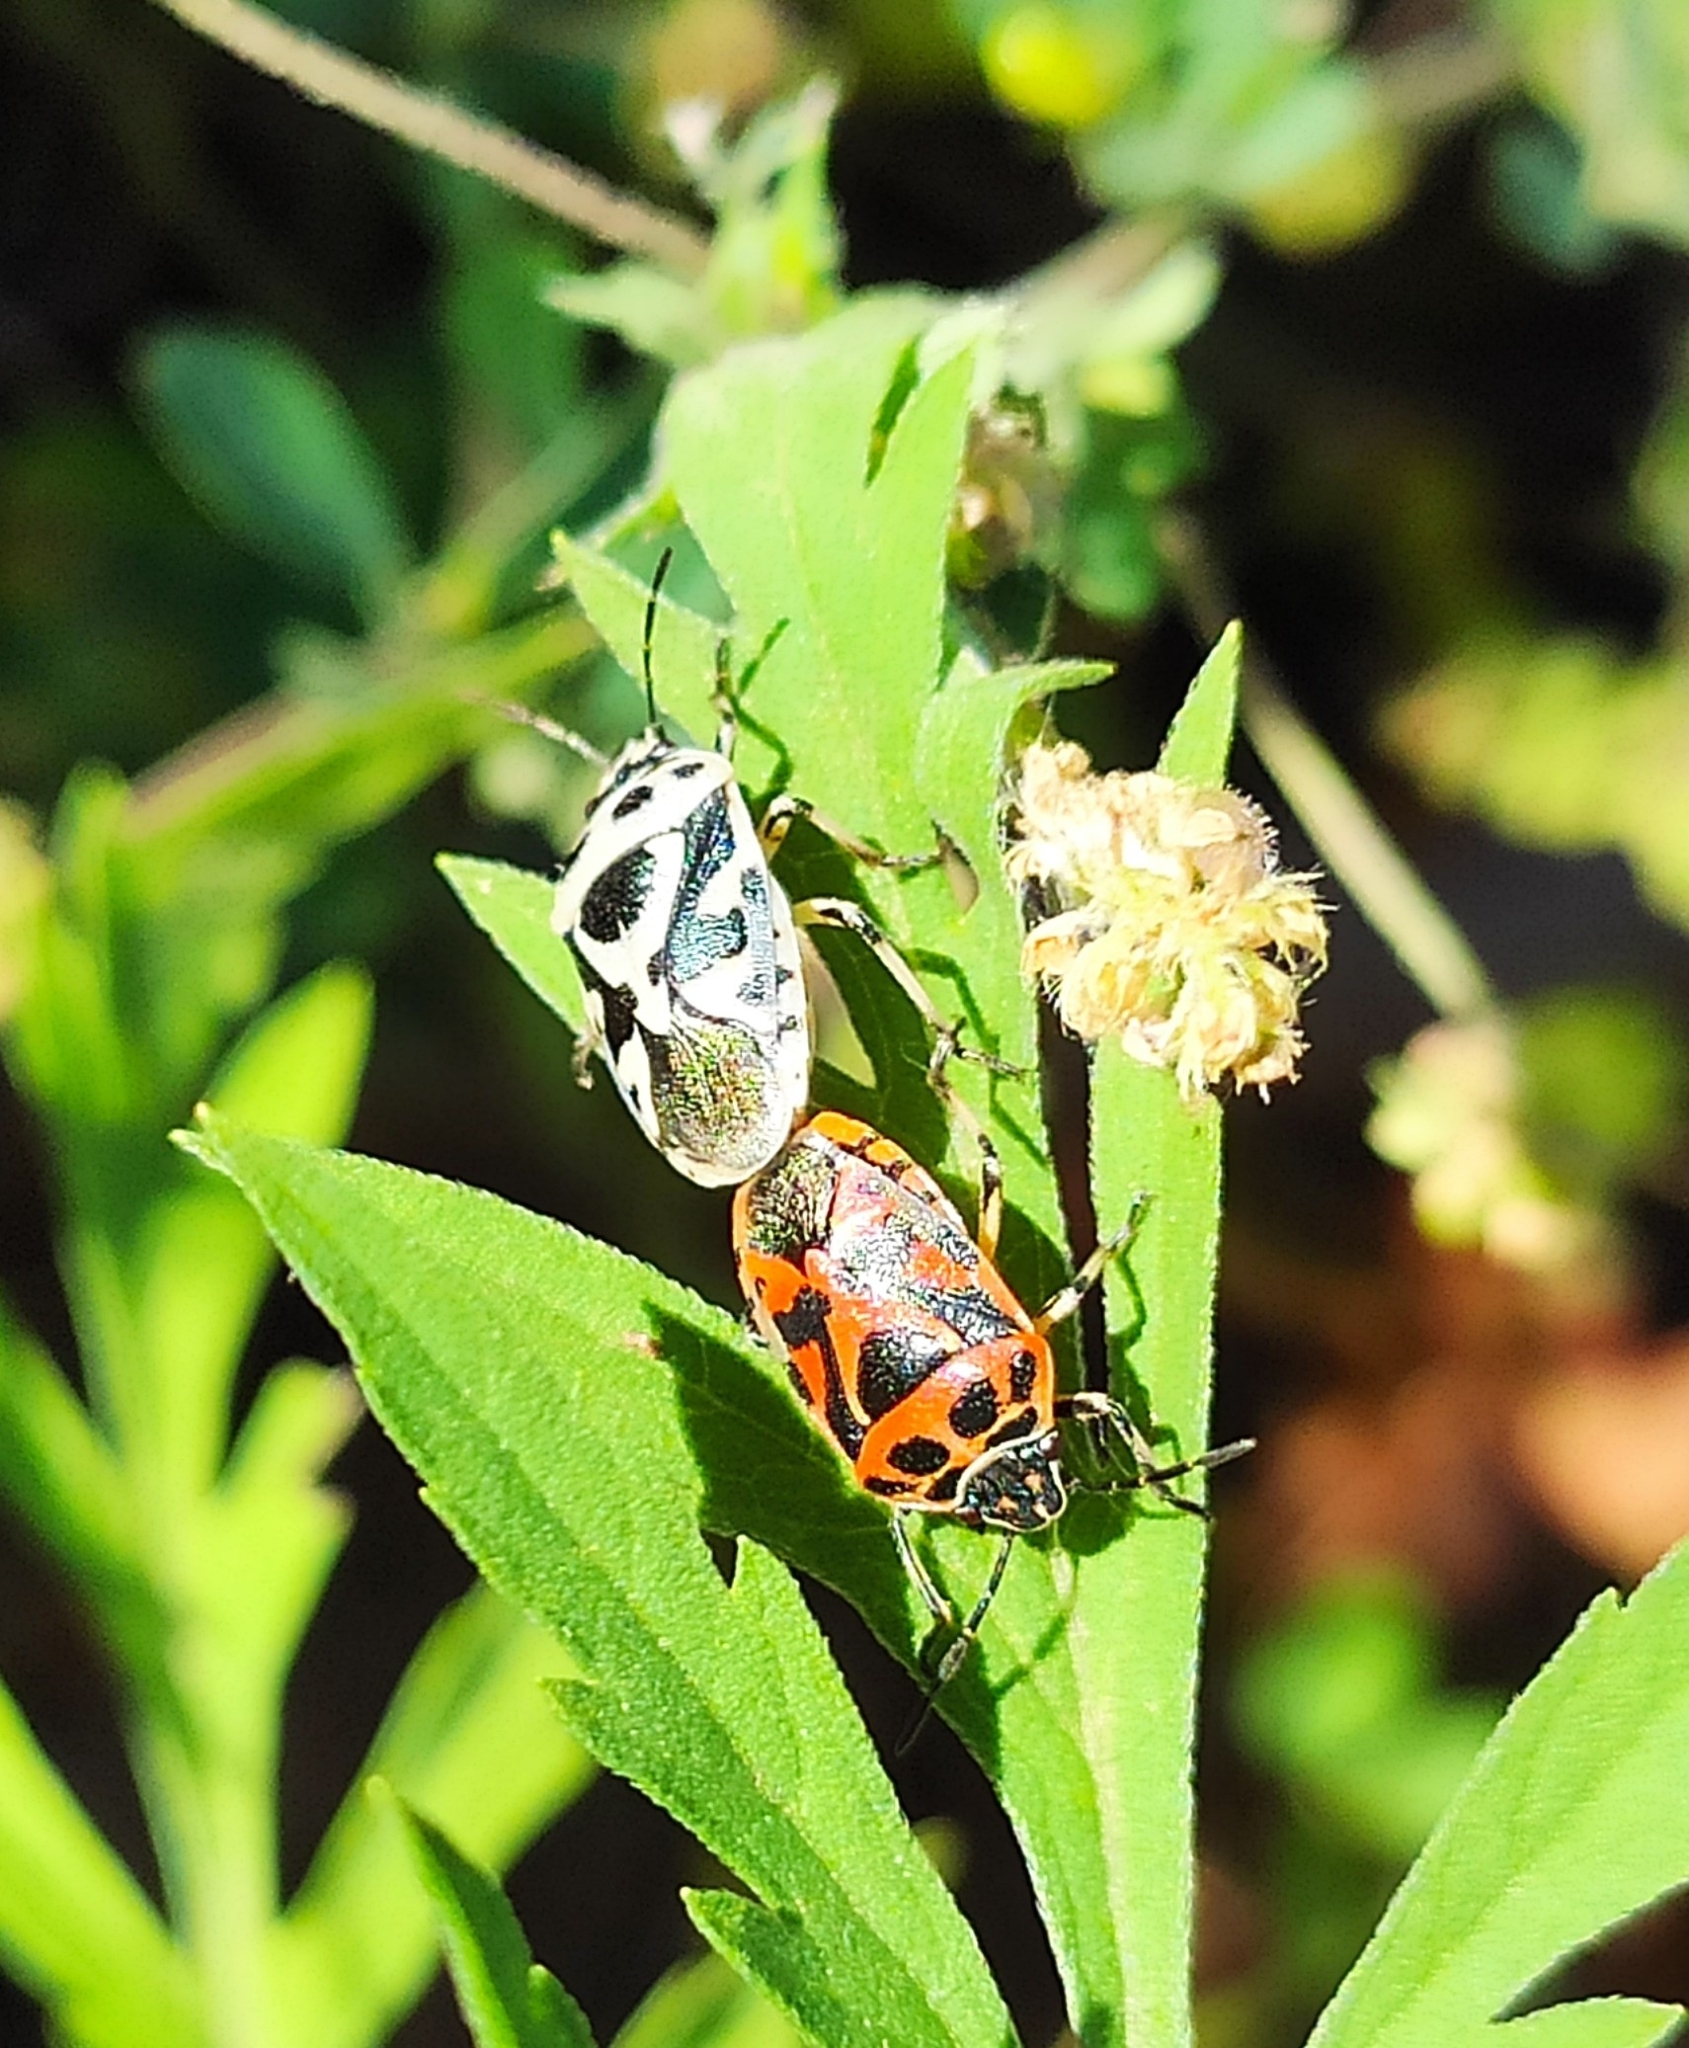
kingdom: Animalia
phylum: Arthropoda
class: Insecta
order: Hemiptera
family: Pentatomidae
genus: Eurydema
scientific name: Eurydema ornata
